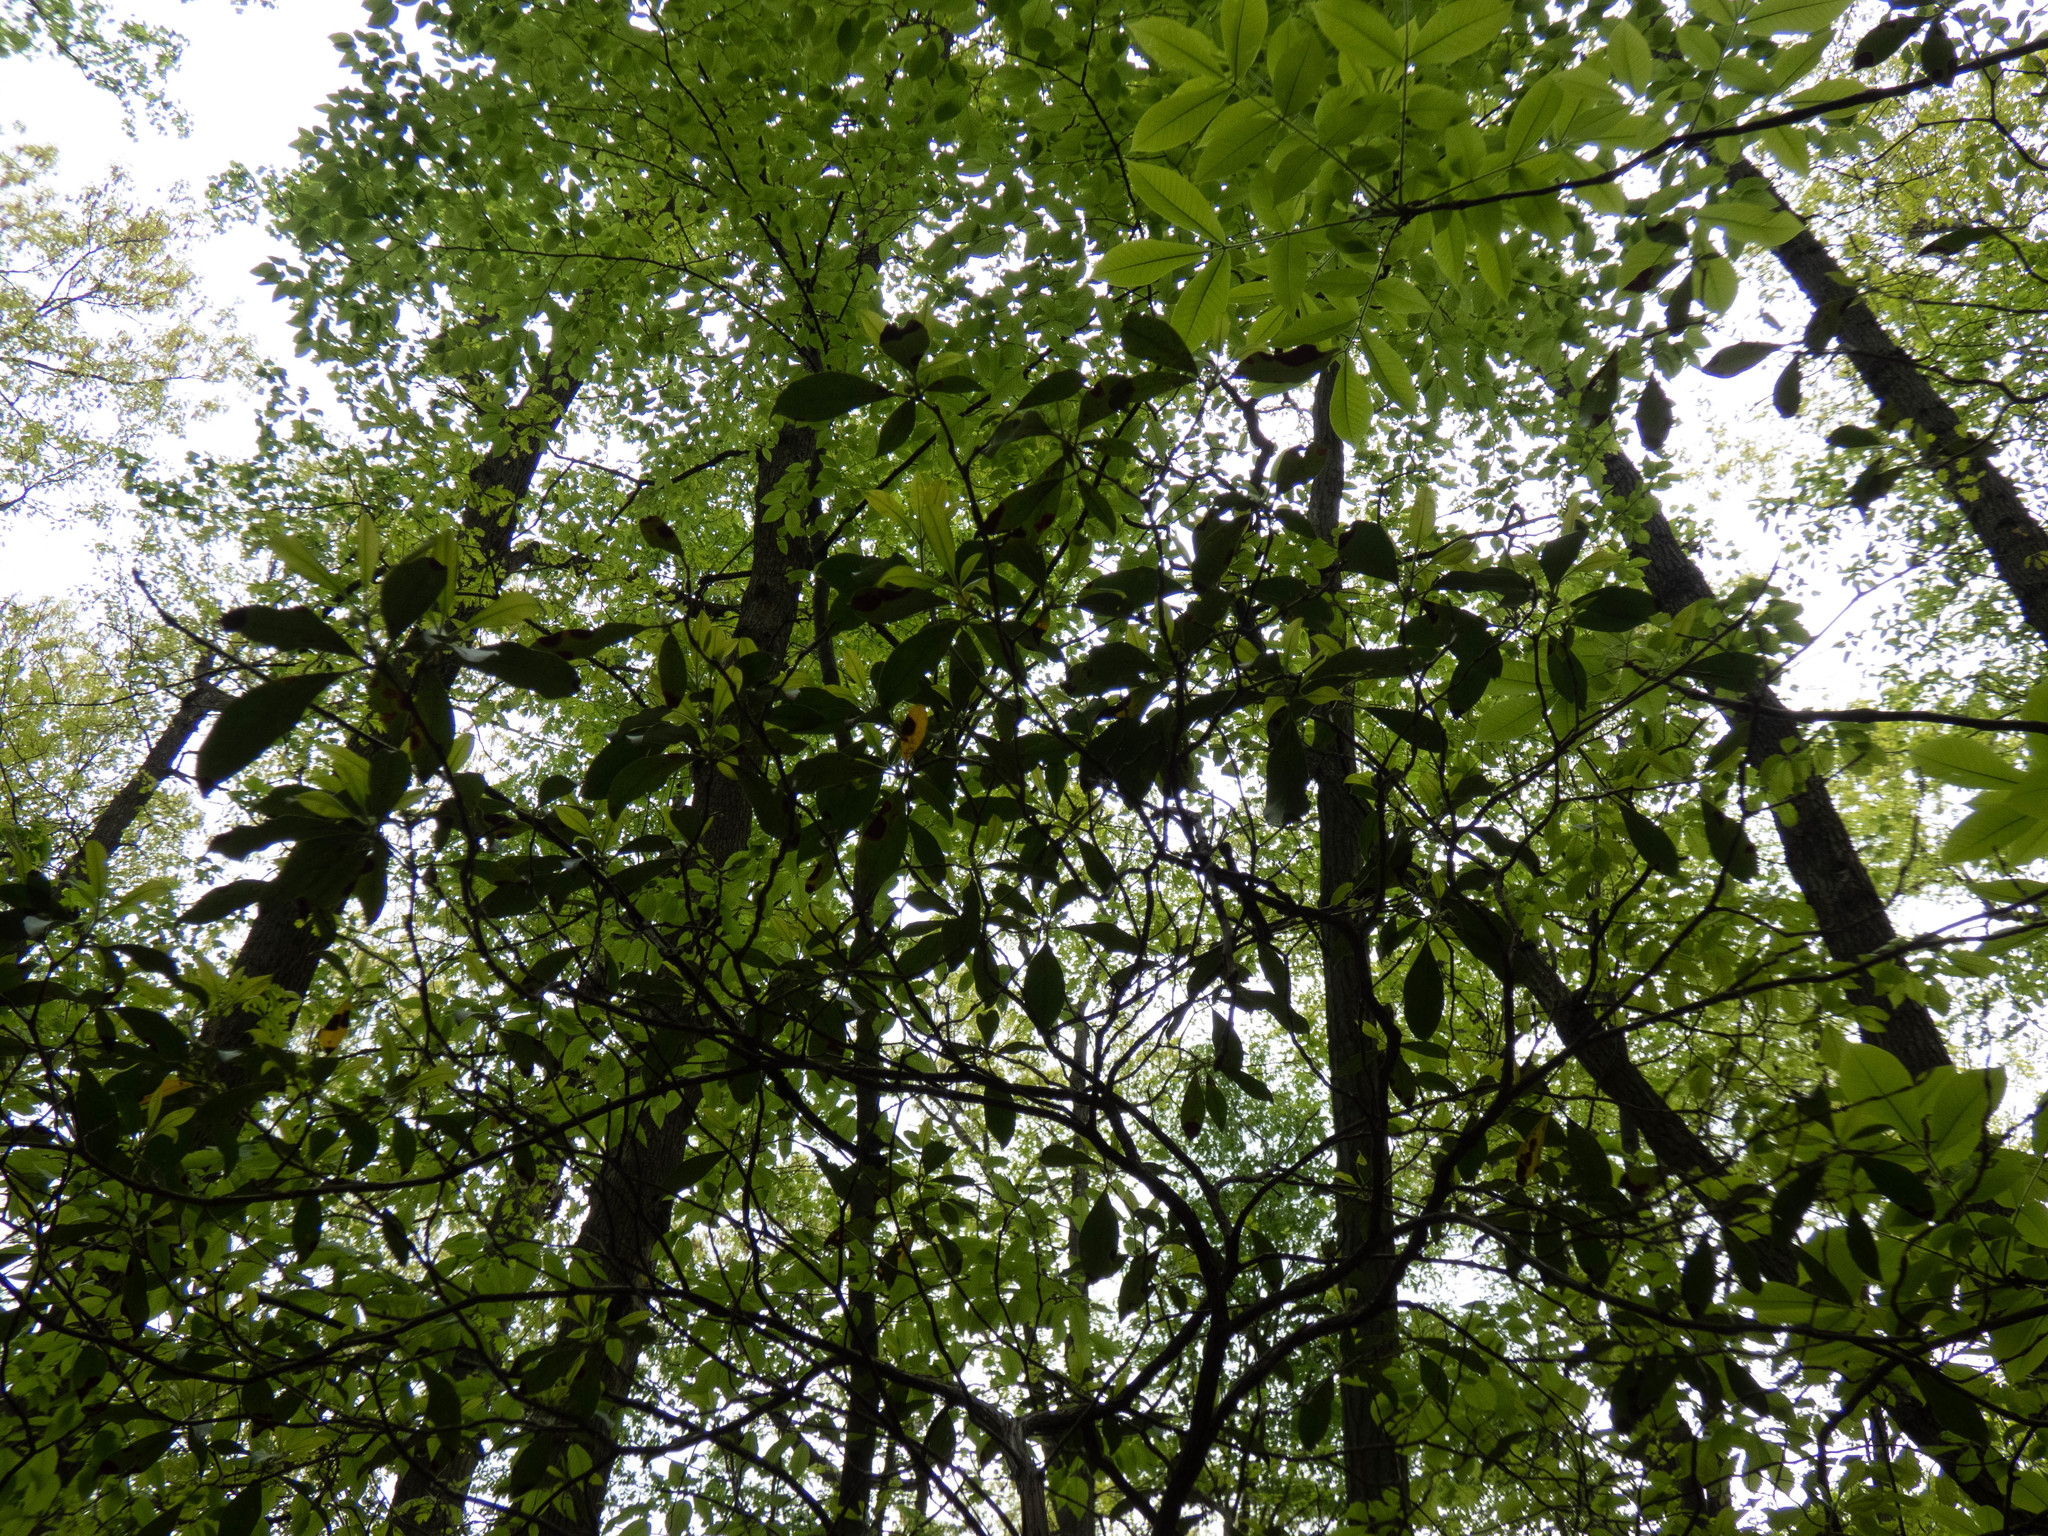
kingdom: Plantae
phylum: Tracheophyta
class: Magnoliopsida
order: Ericales
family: Ericaceae
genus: Kalmia
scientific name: Kalmia latifolia
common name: Mountain-laurel
